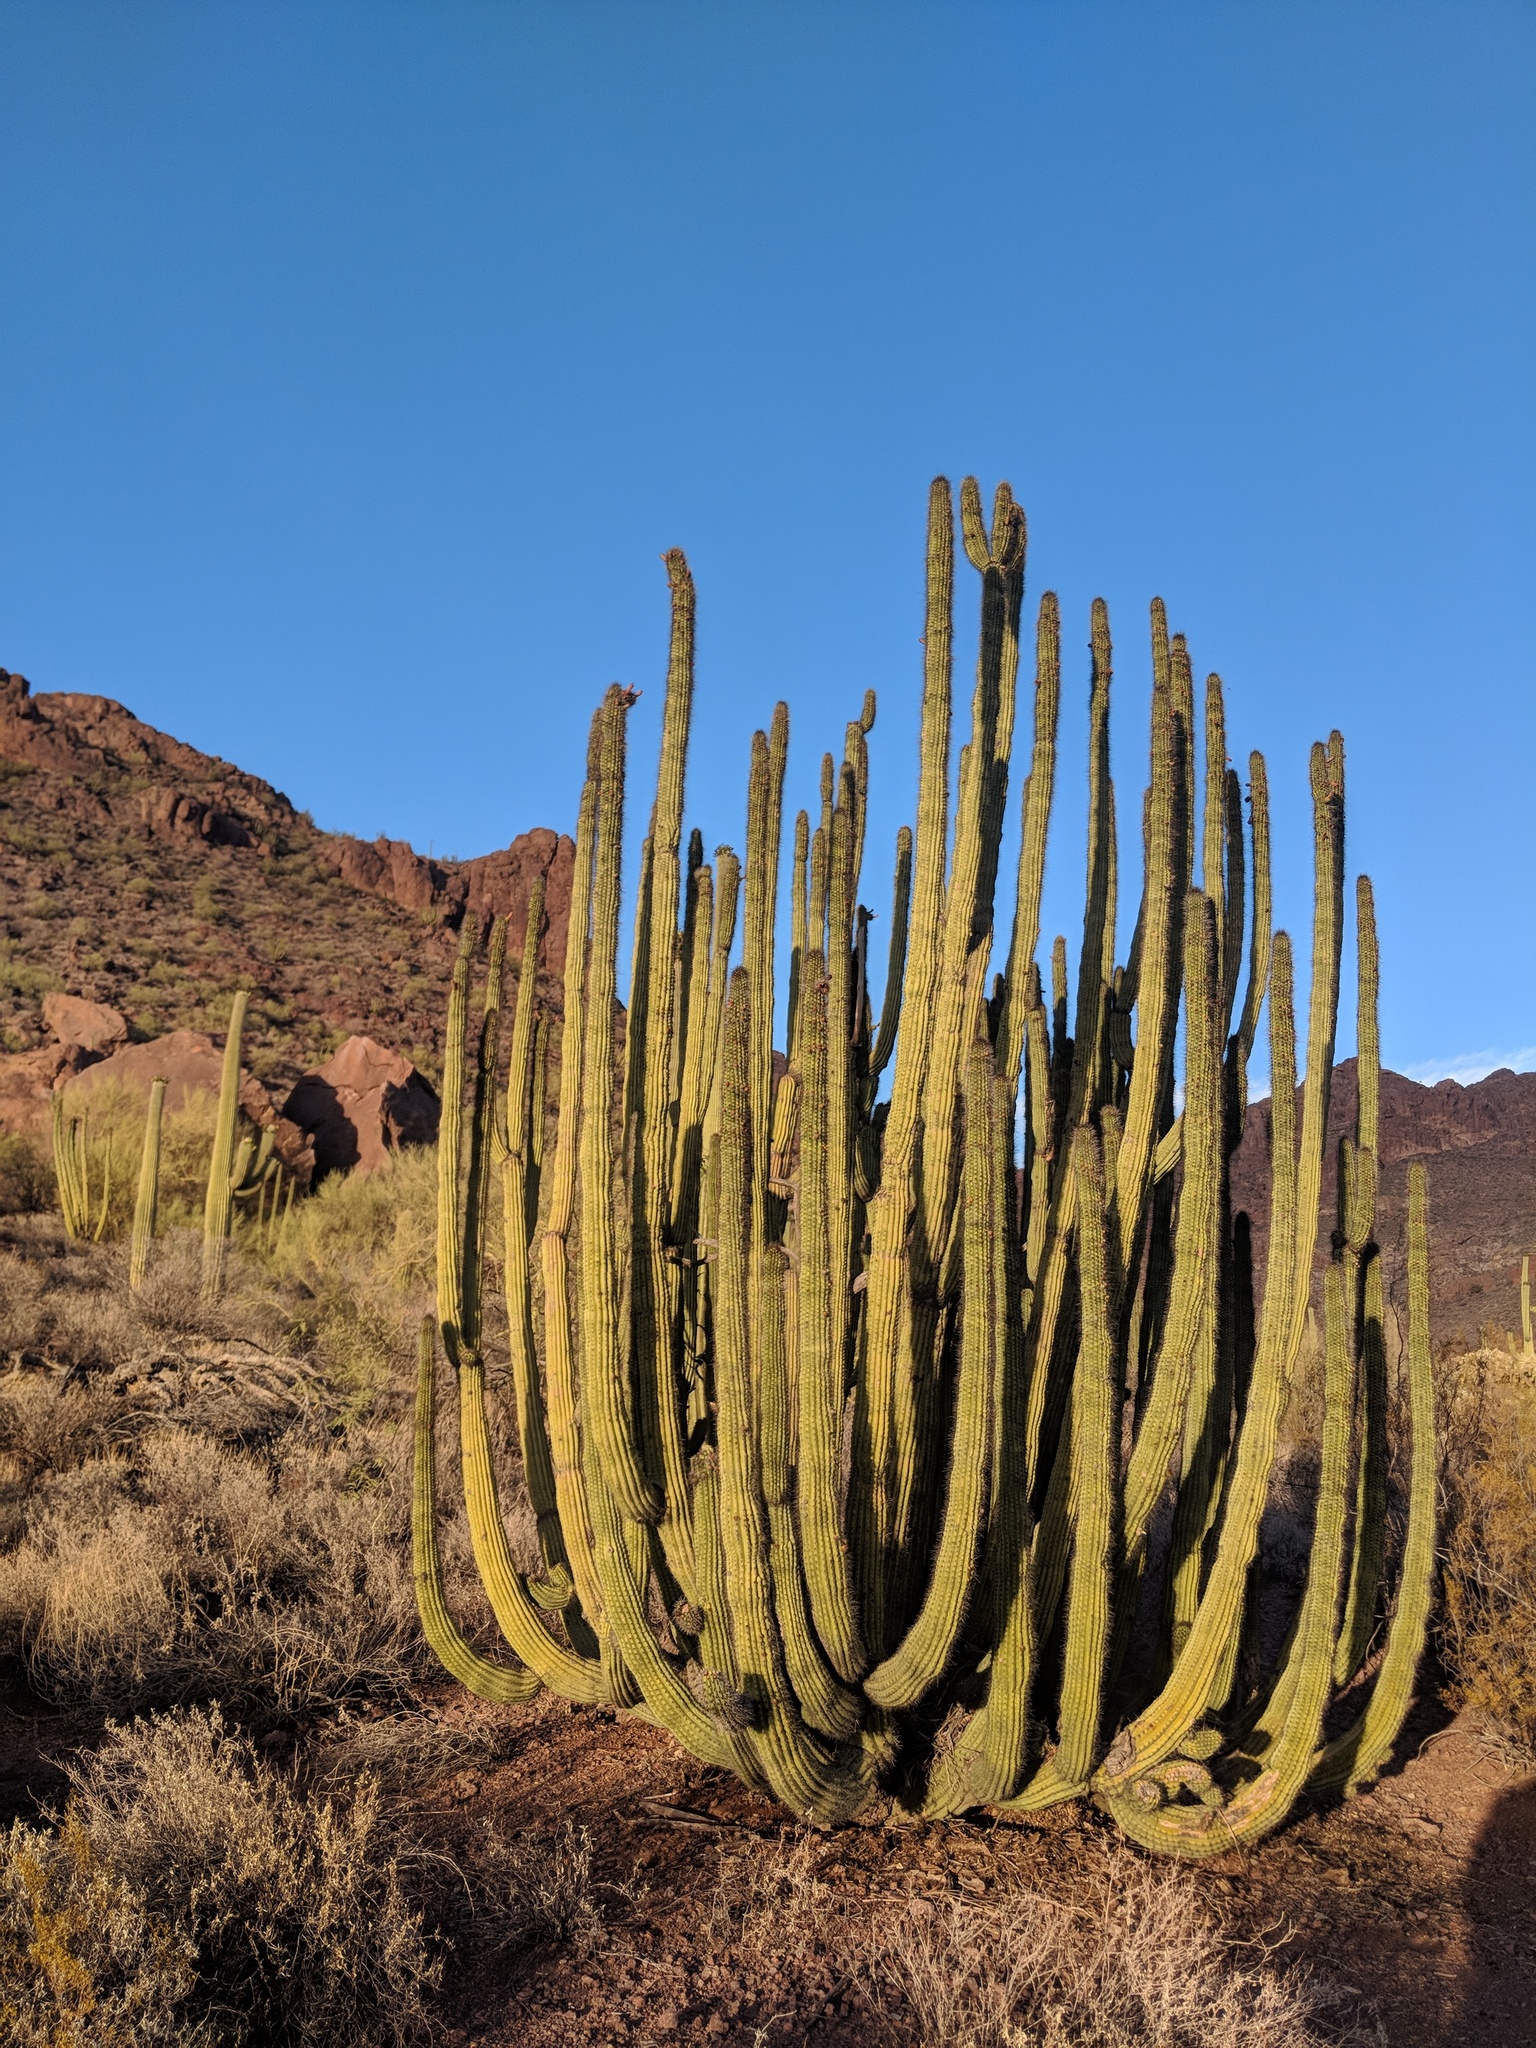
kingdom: Plantae
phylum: Tracheophyta
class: Magnoliopsida
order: Caryophyllales
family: Cactaceae
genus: Stenocereus
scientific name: Stenocereus thurberi
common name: Organ pipe cactus
